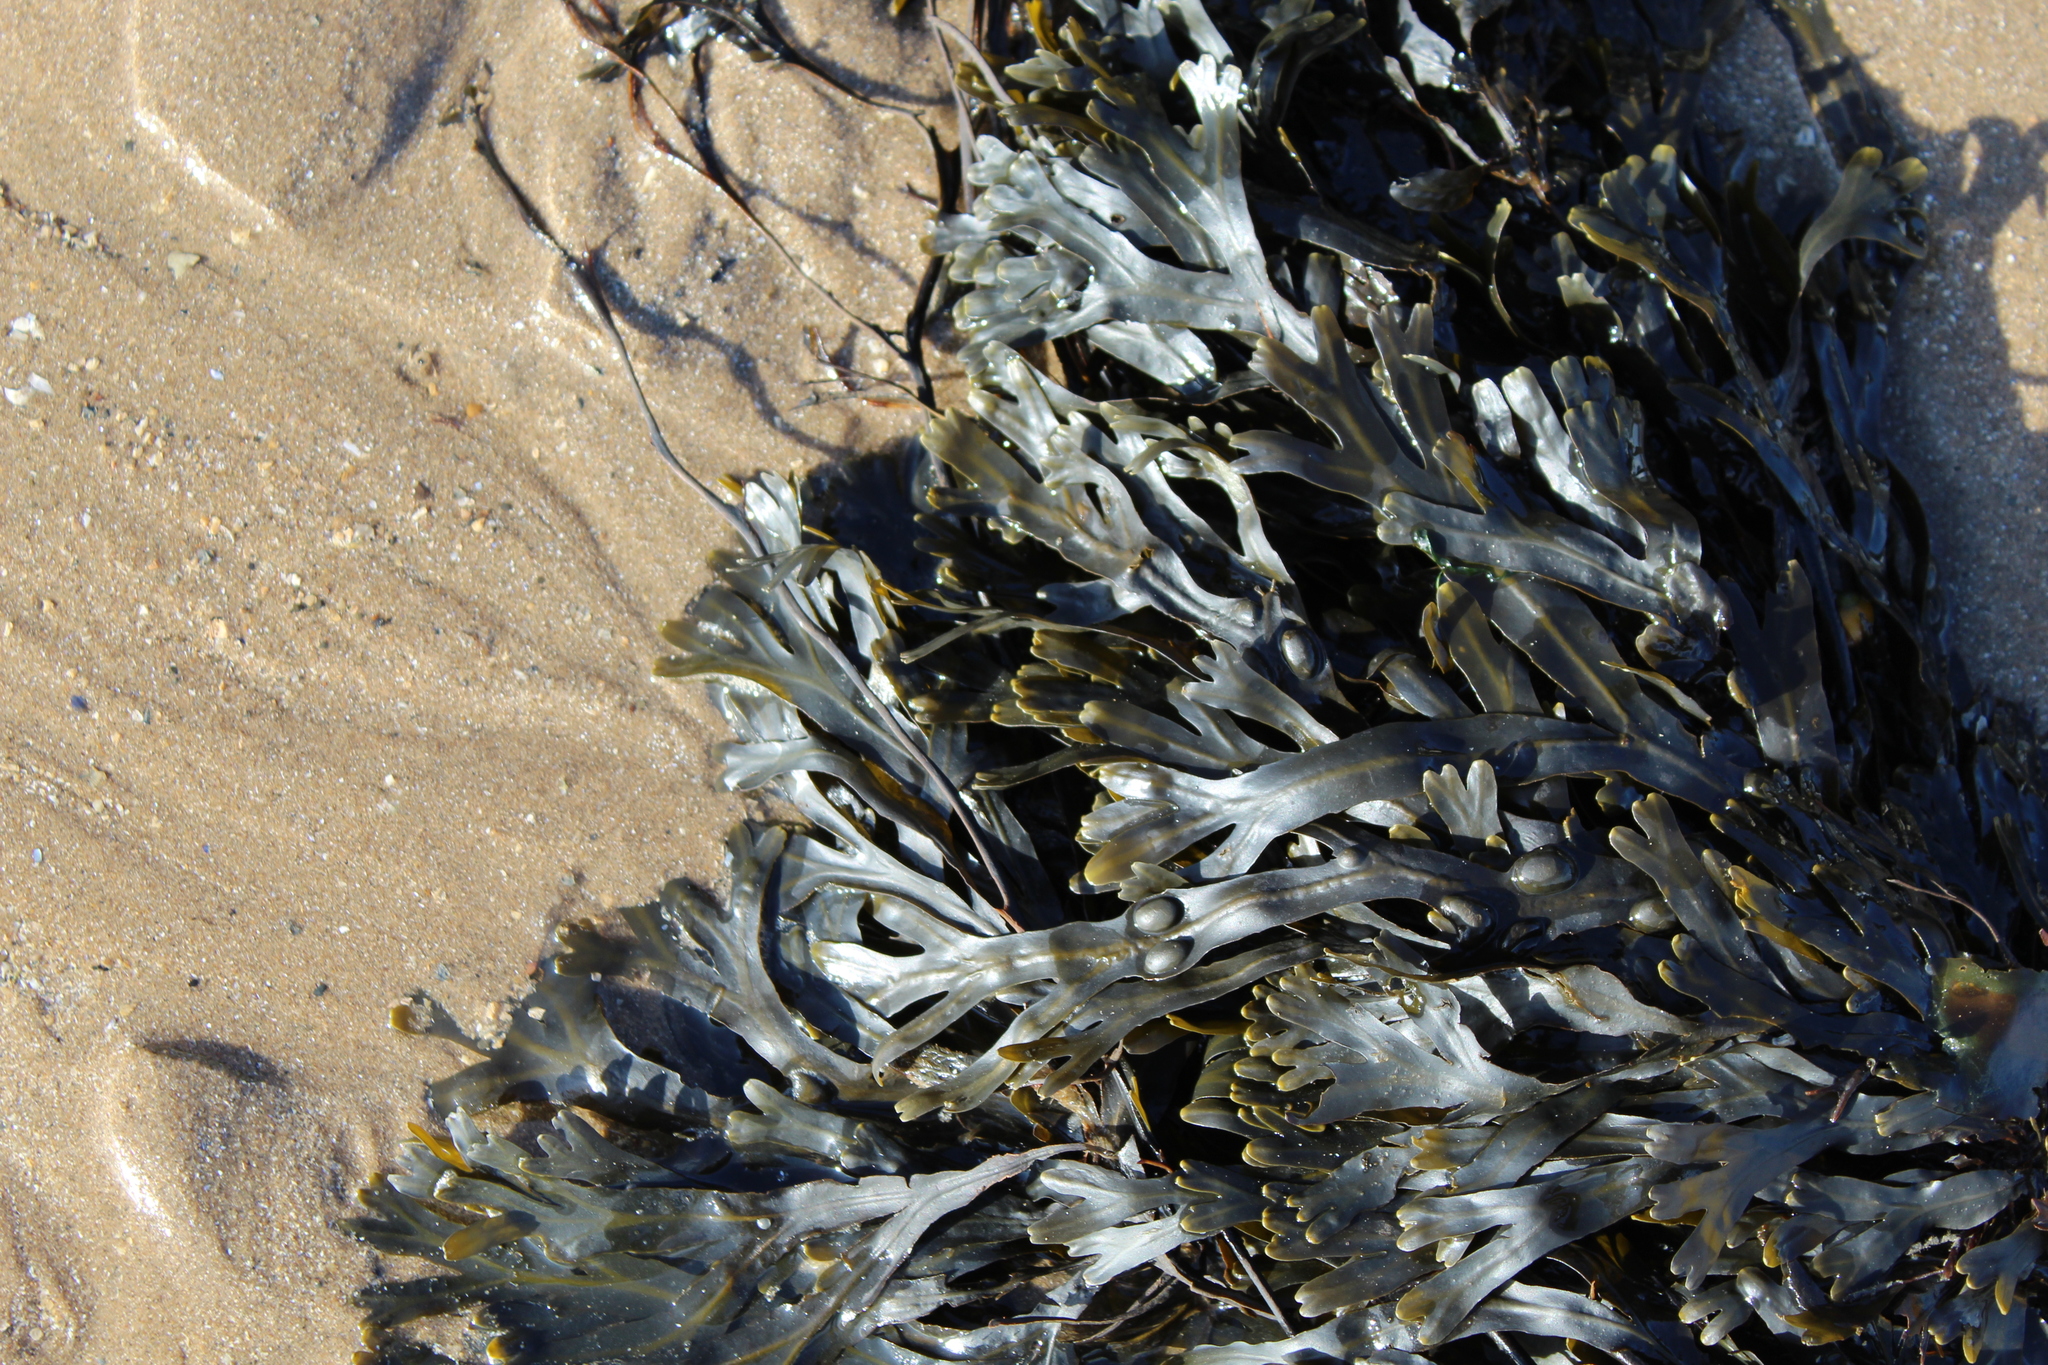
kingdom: Chromista
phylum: Ochrophyta
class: Phaeophyceae
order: Fucales
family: Fucaceae
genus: Fucus
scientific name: Fucus vesiculosus
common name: Bladder wrack
